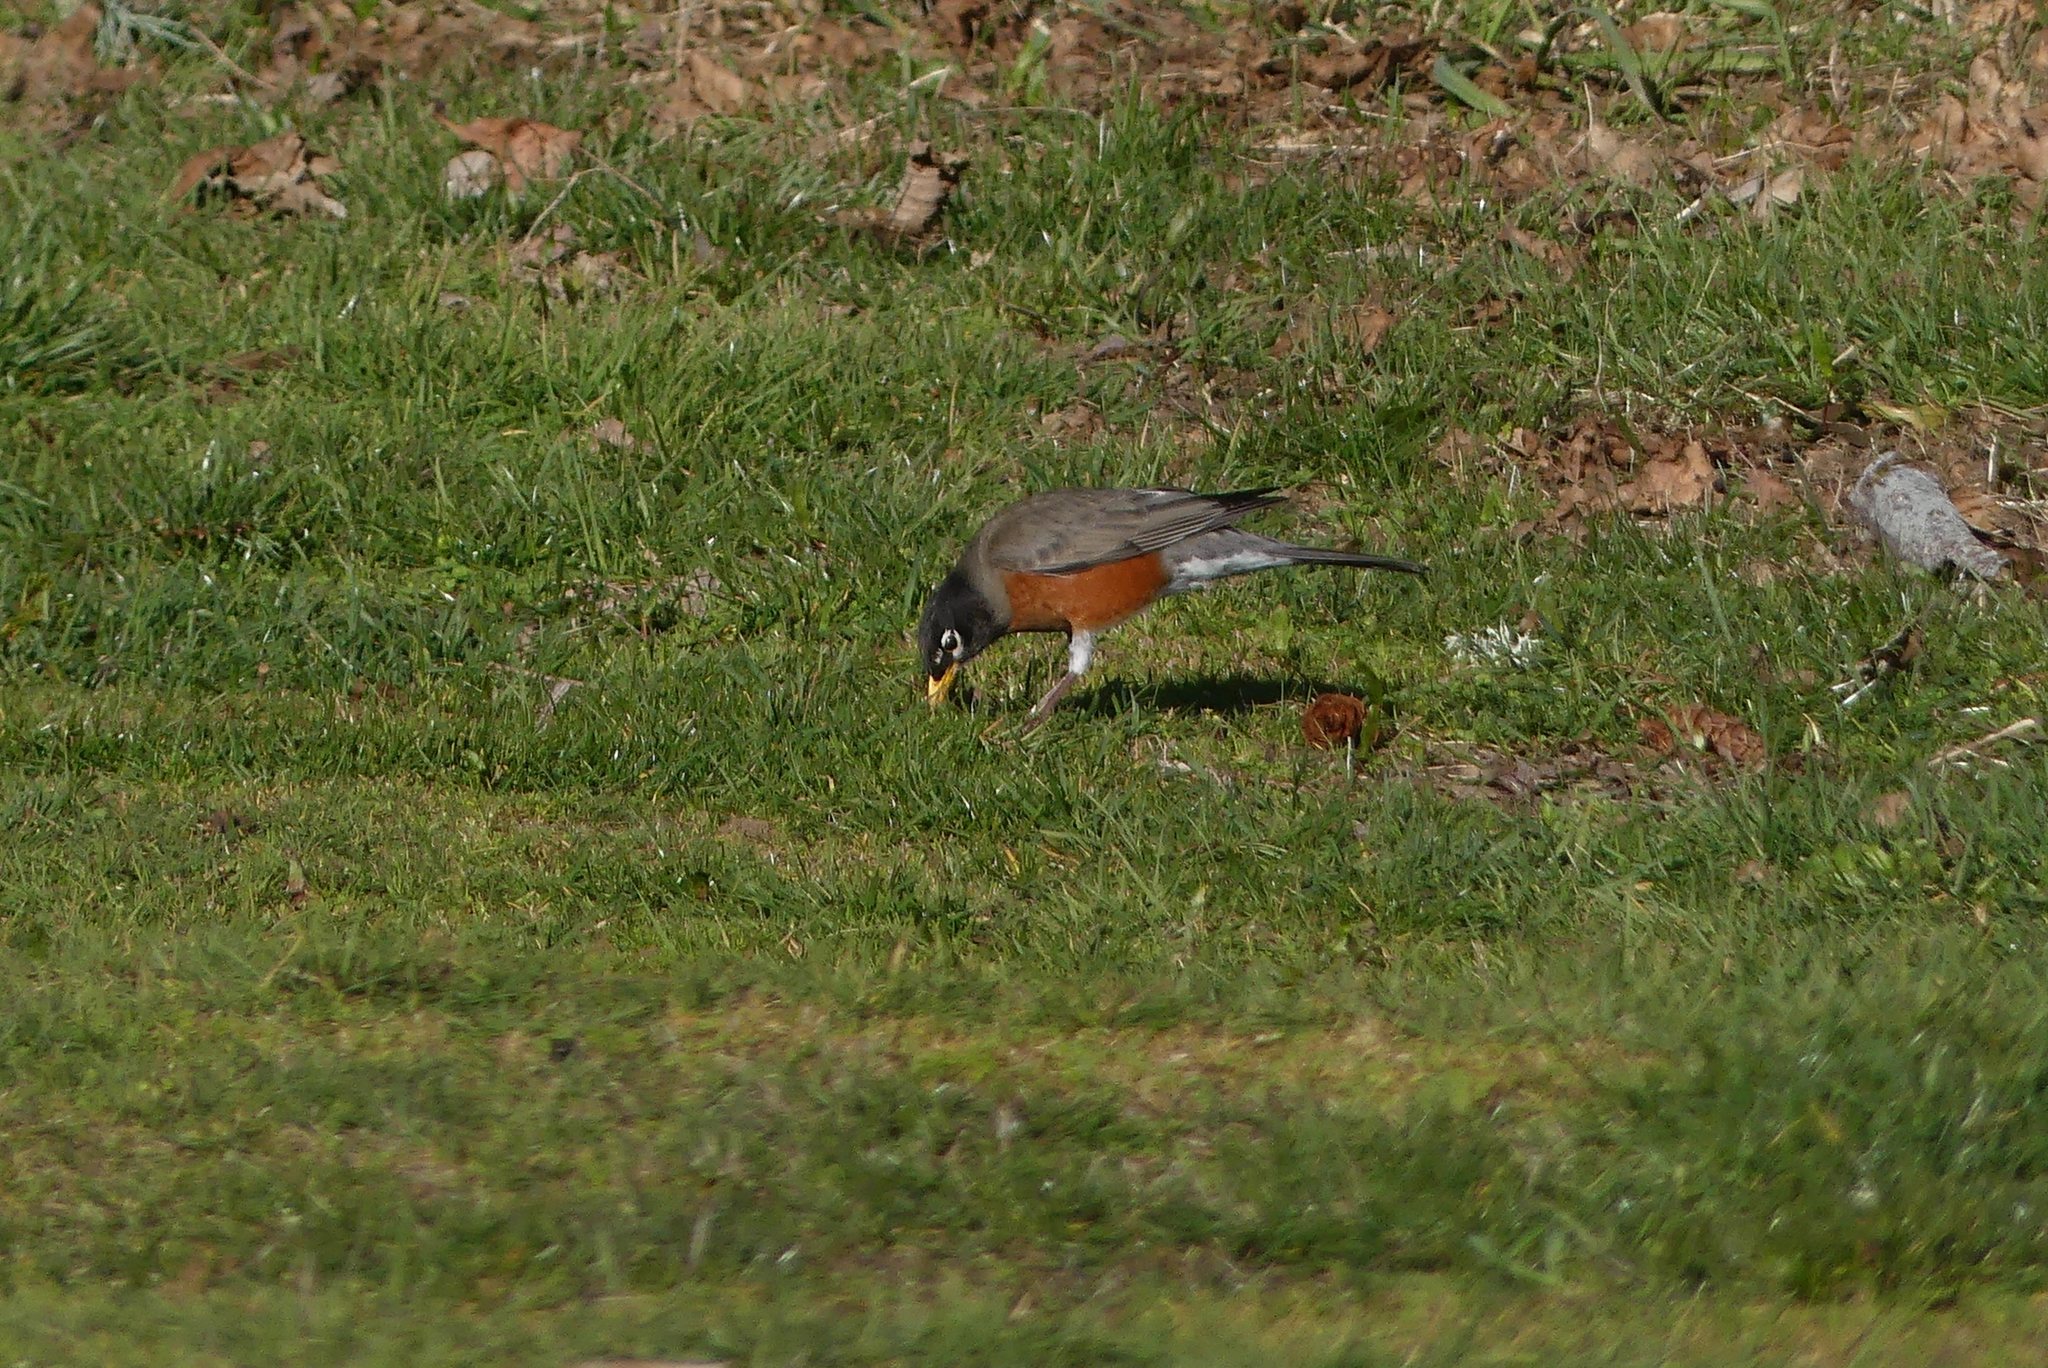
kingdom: Animalia
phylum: Chordata
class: Aves
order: Passeriformes
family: Turdidae
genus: Turdus
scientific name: Turdus migratorius
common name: American robin
